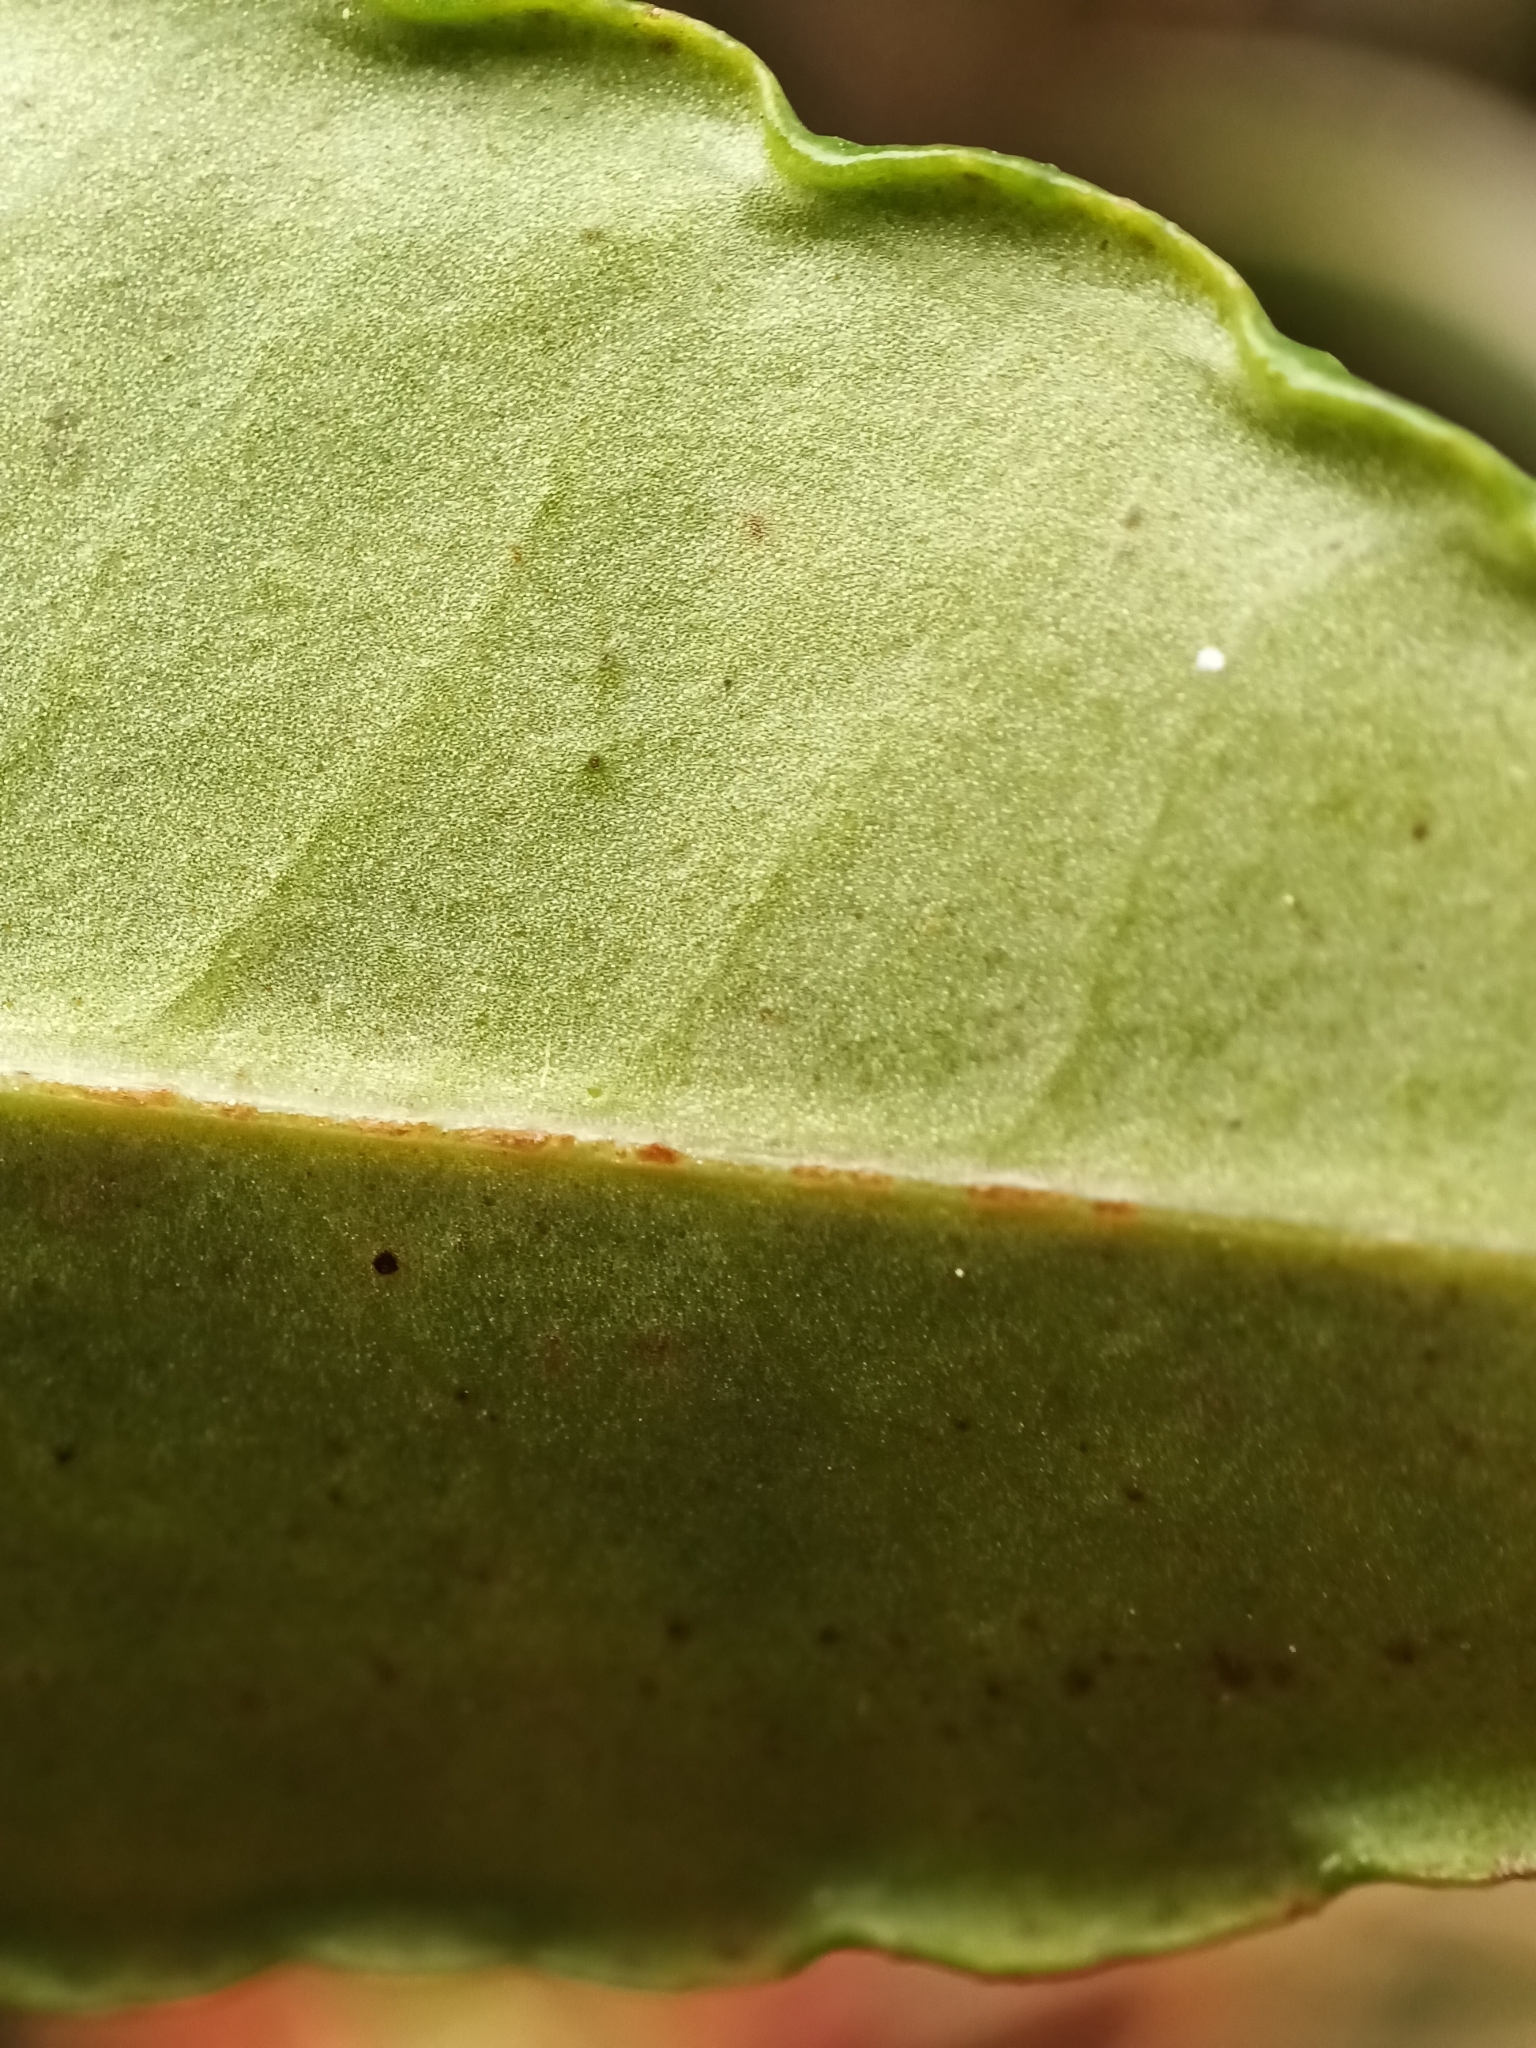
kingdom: Plantae
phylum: Tracheophyta
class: Magnoliopsida
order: Ericales
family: Primulaceae
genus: Ardisia
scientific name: Ardisia crenata
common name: Hen's eyes
